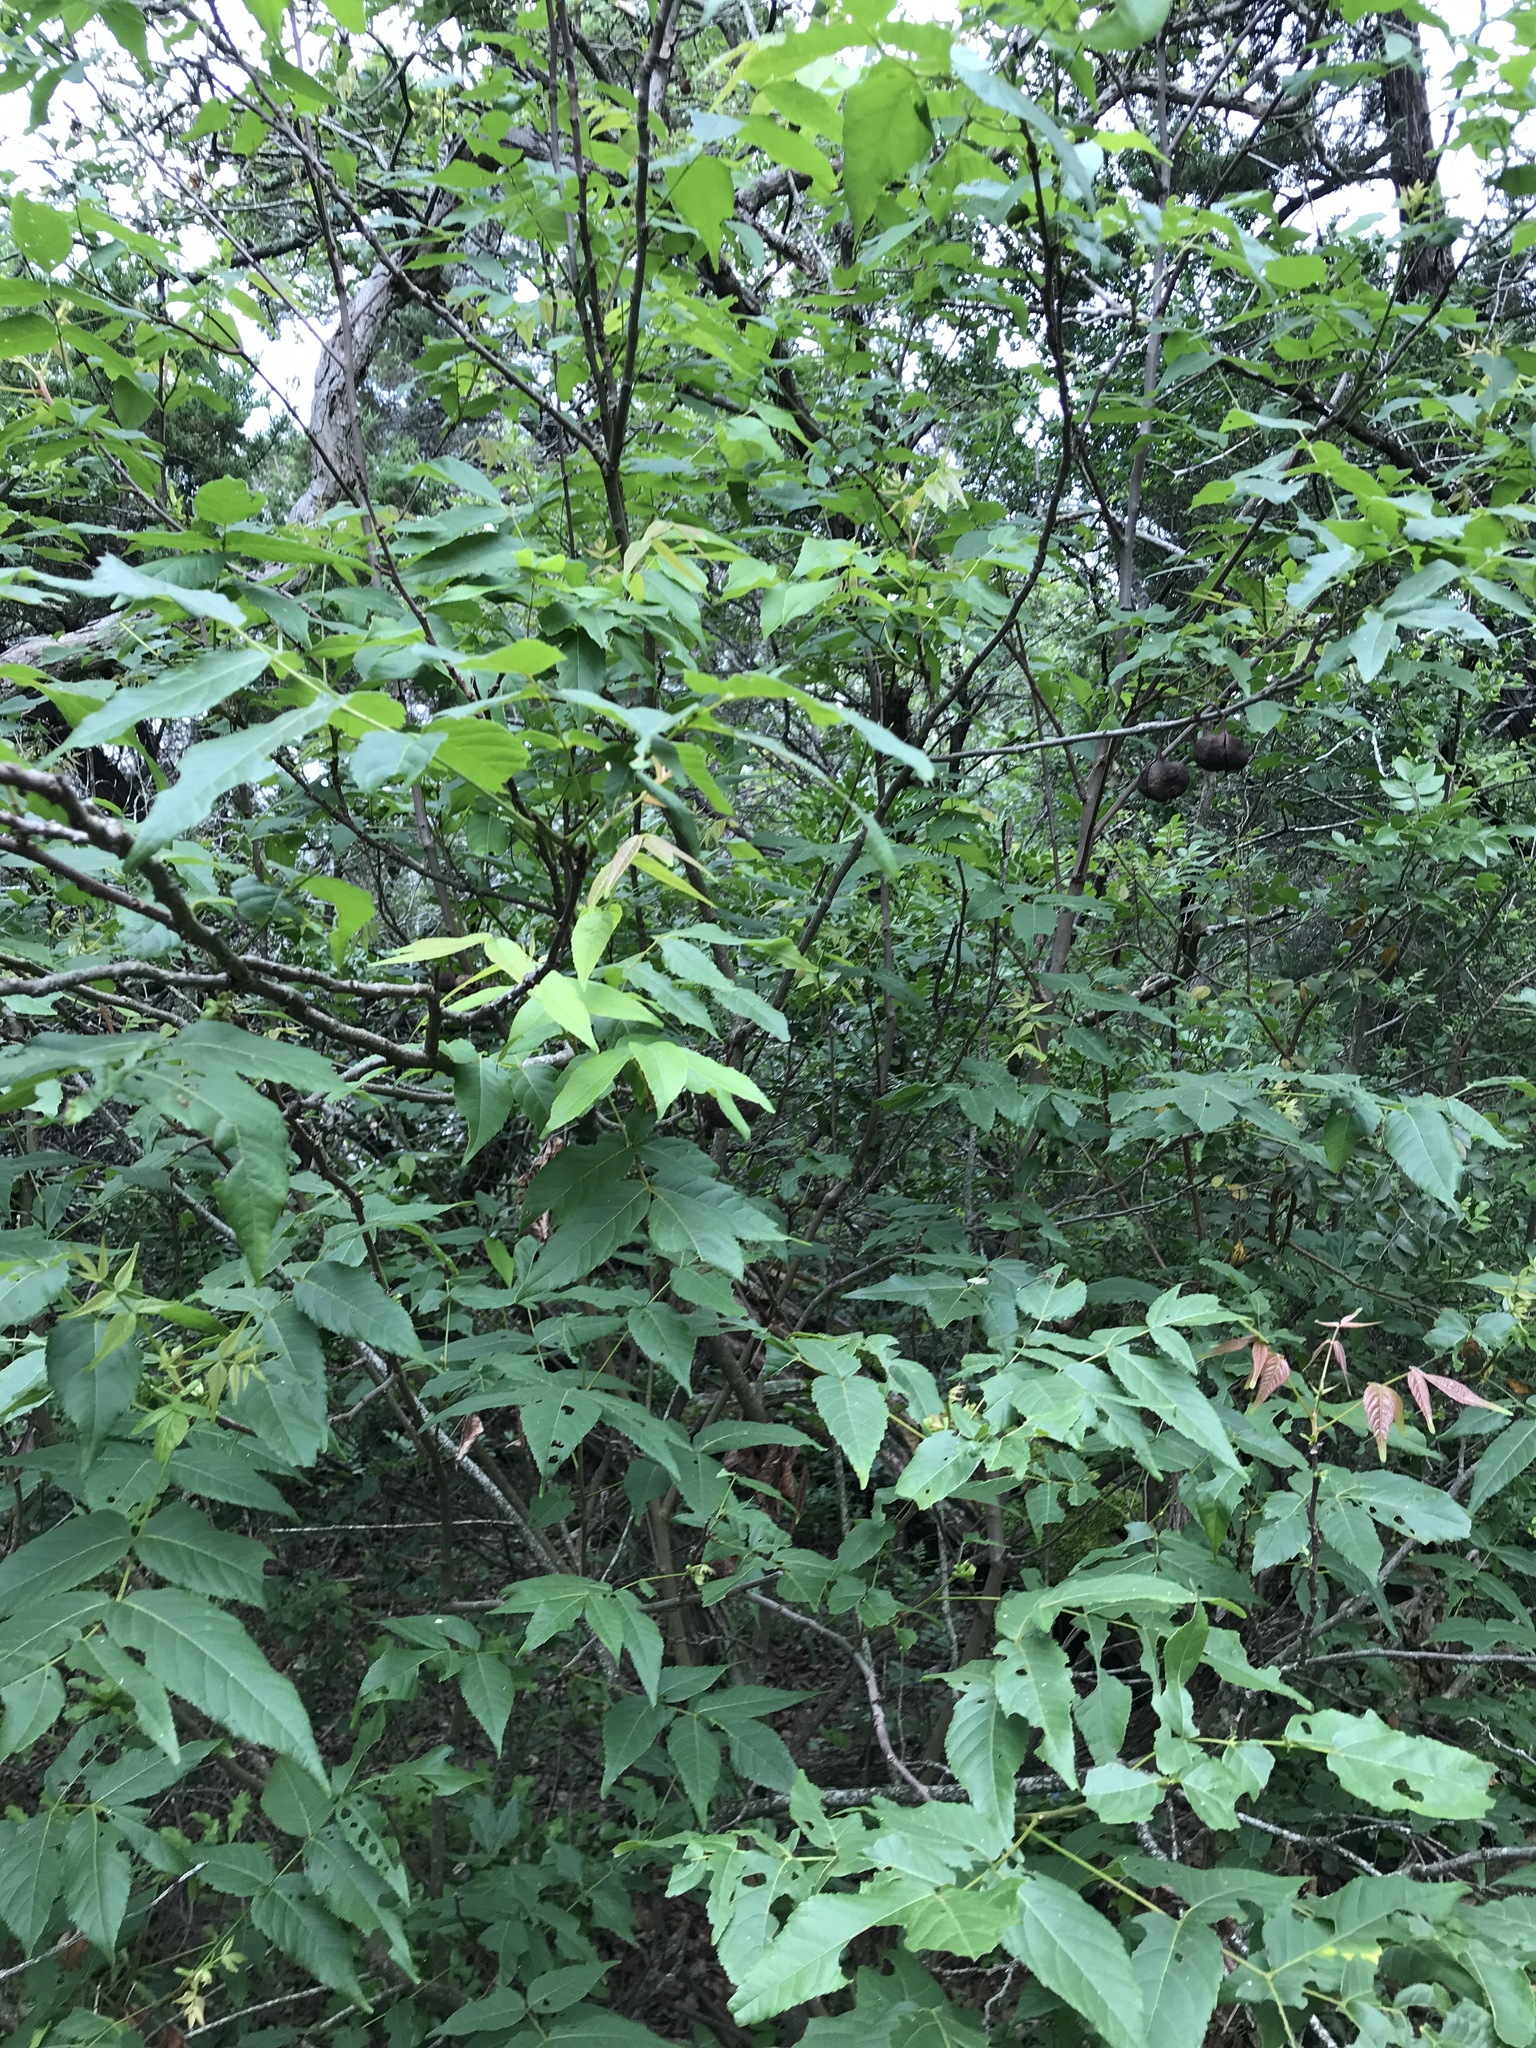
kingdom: Plantae
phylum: Tracheophyta
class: Magnoliopsida
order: Sapindales
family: Sapindaceae
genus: Ungnadia
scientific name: Ungnadia speciosa
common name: Texas-buckeye
